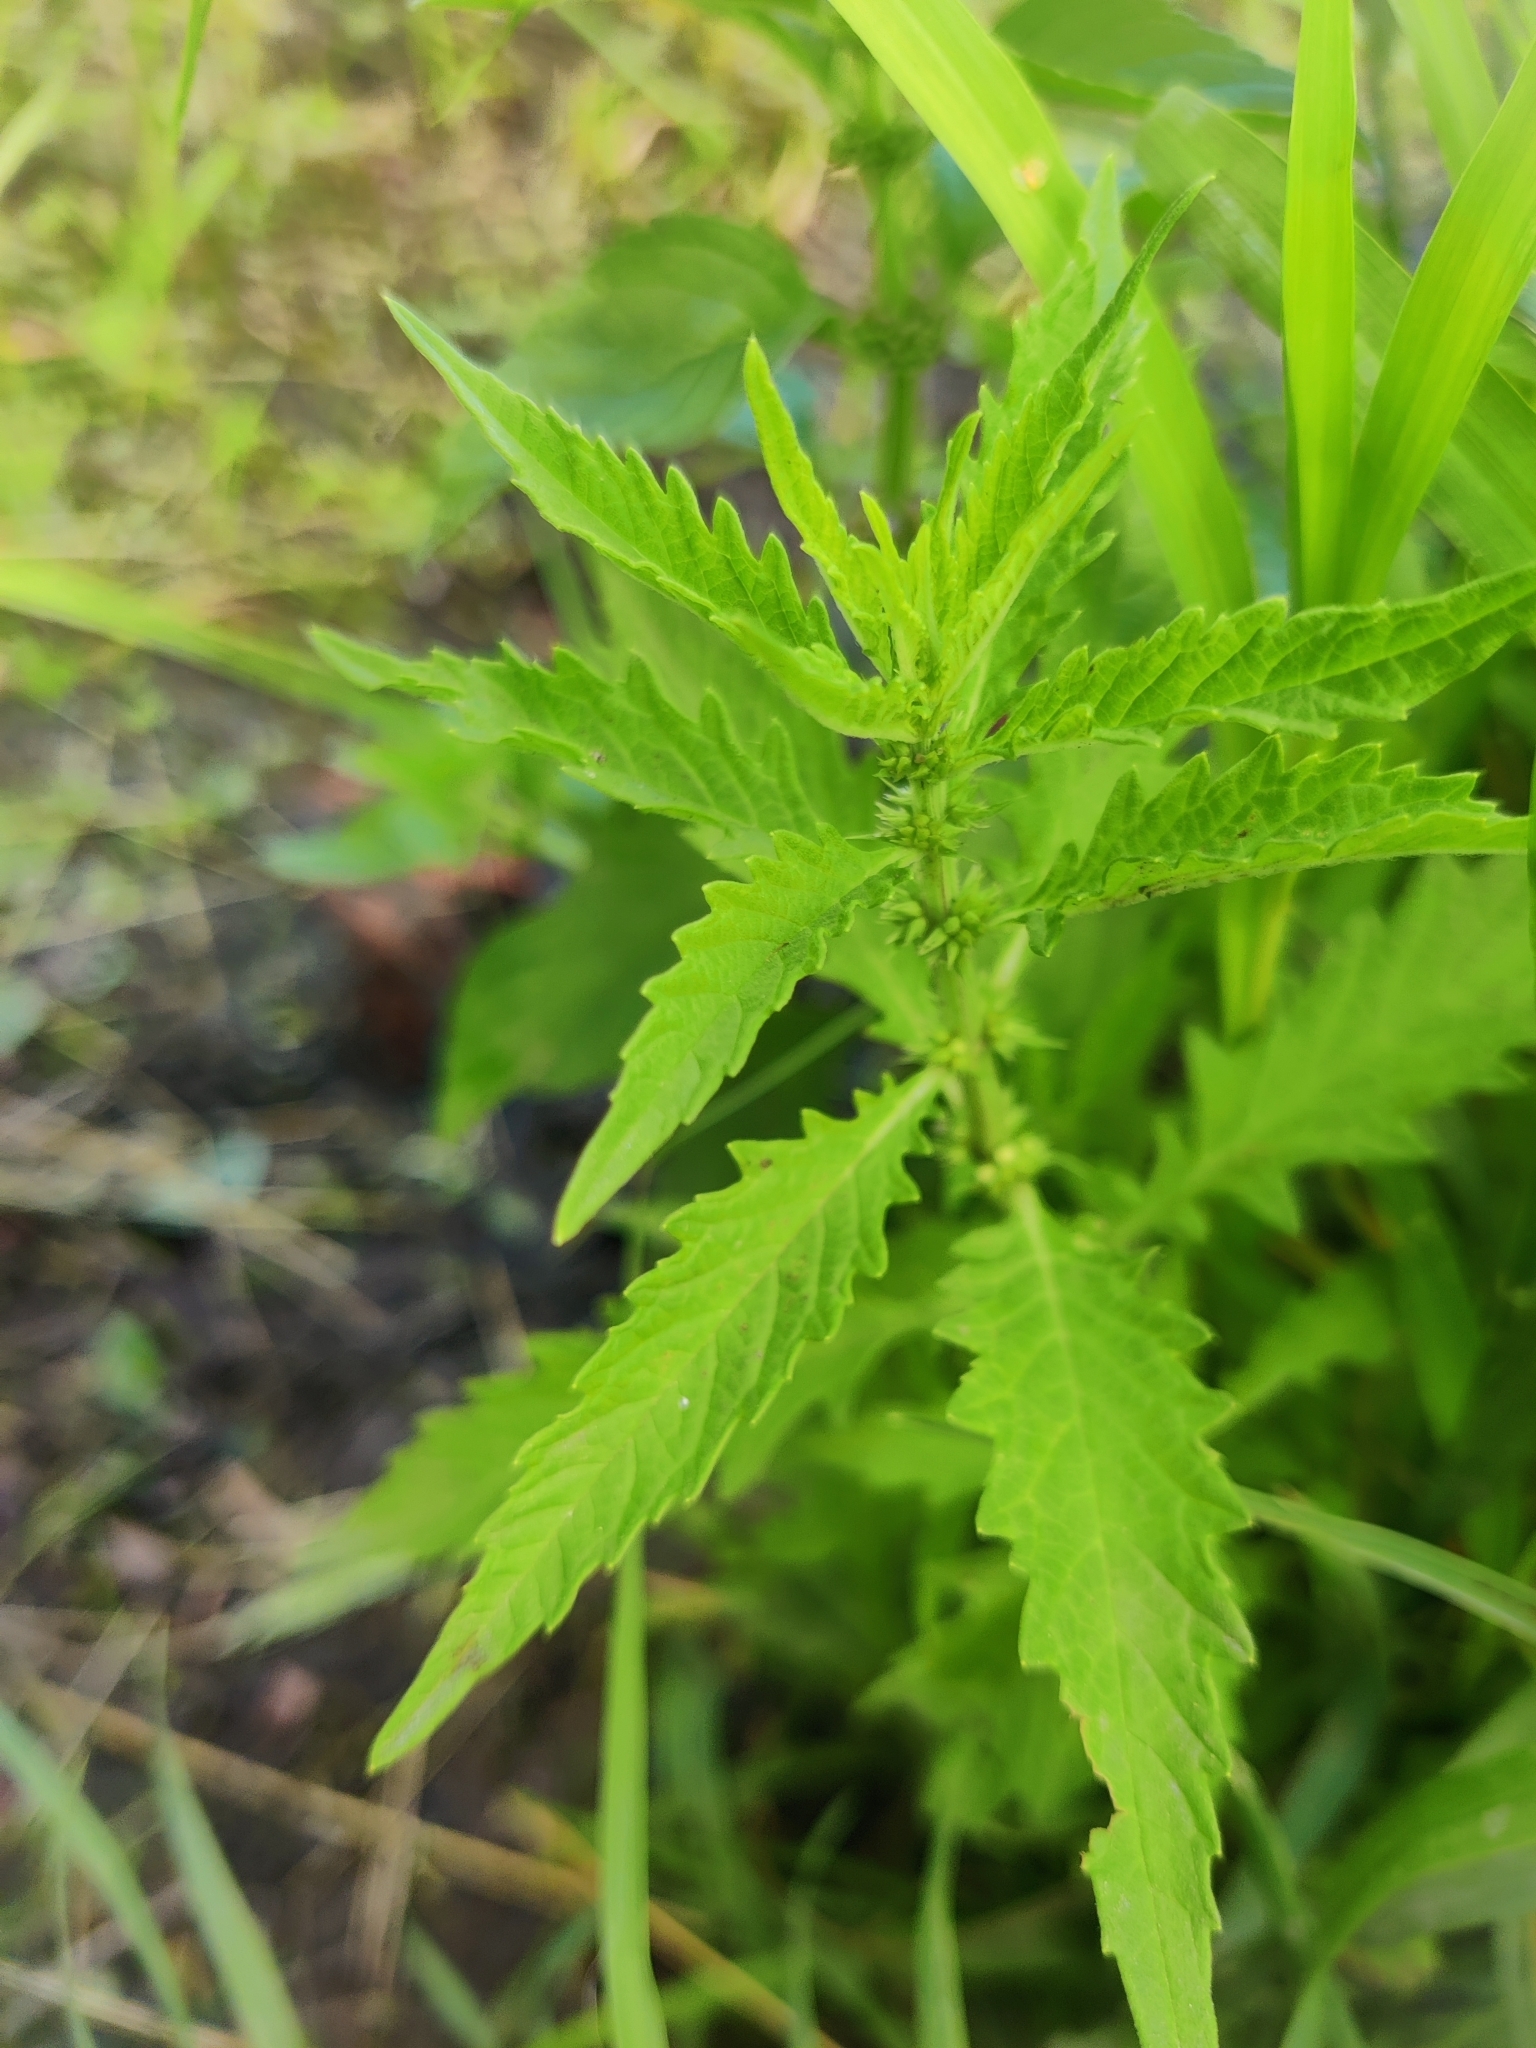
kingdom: Plantae
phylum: Tracheophyta
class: Magnoliopsida
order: Lamiales
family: Lamiaceae
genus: Lycopus
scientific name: Lycopus europaeus
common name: European bugleweed
